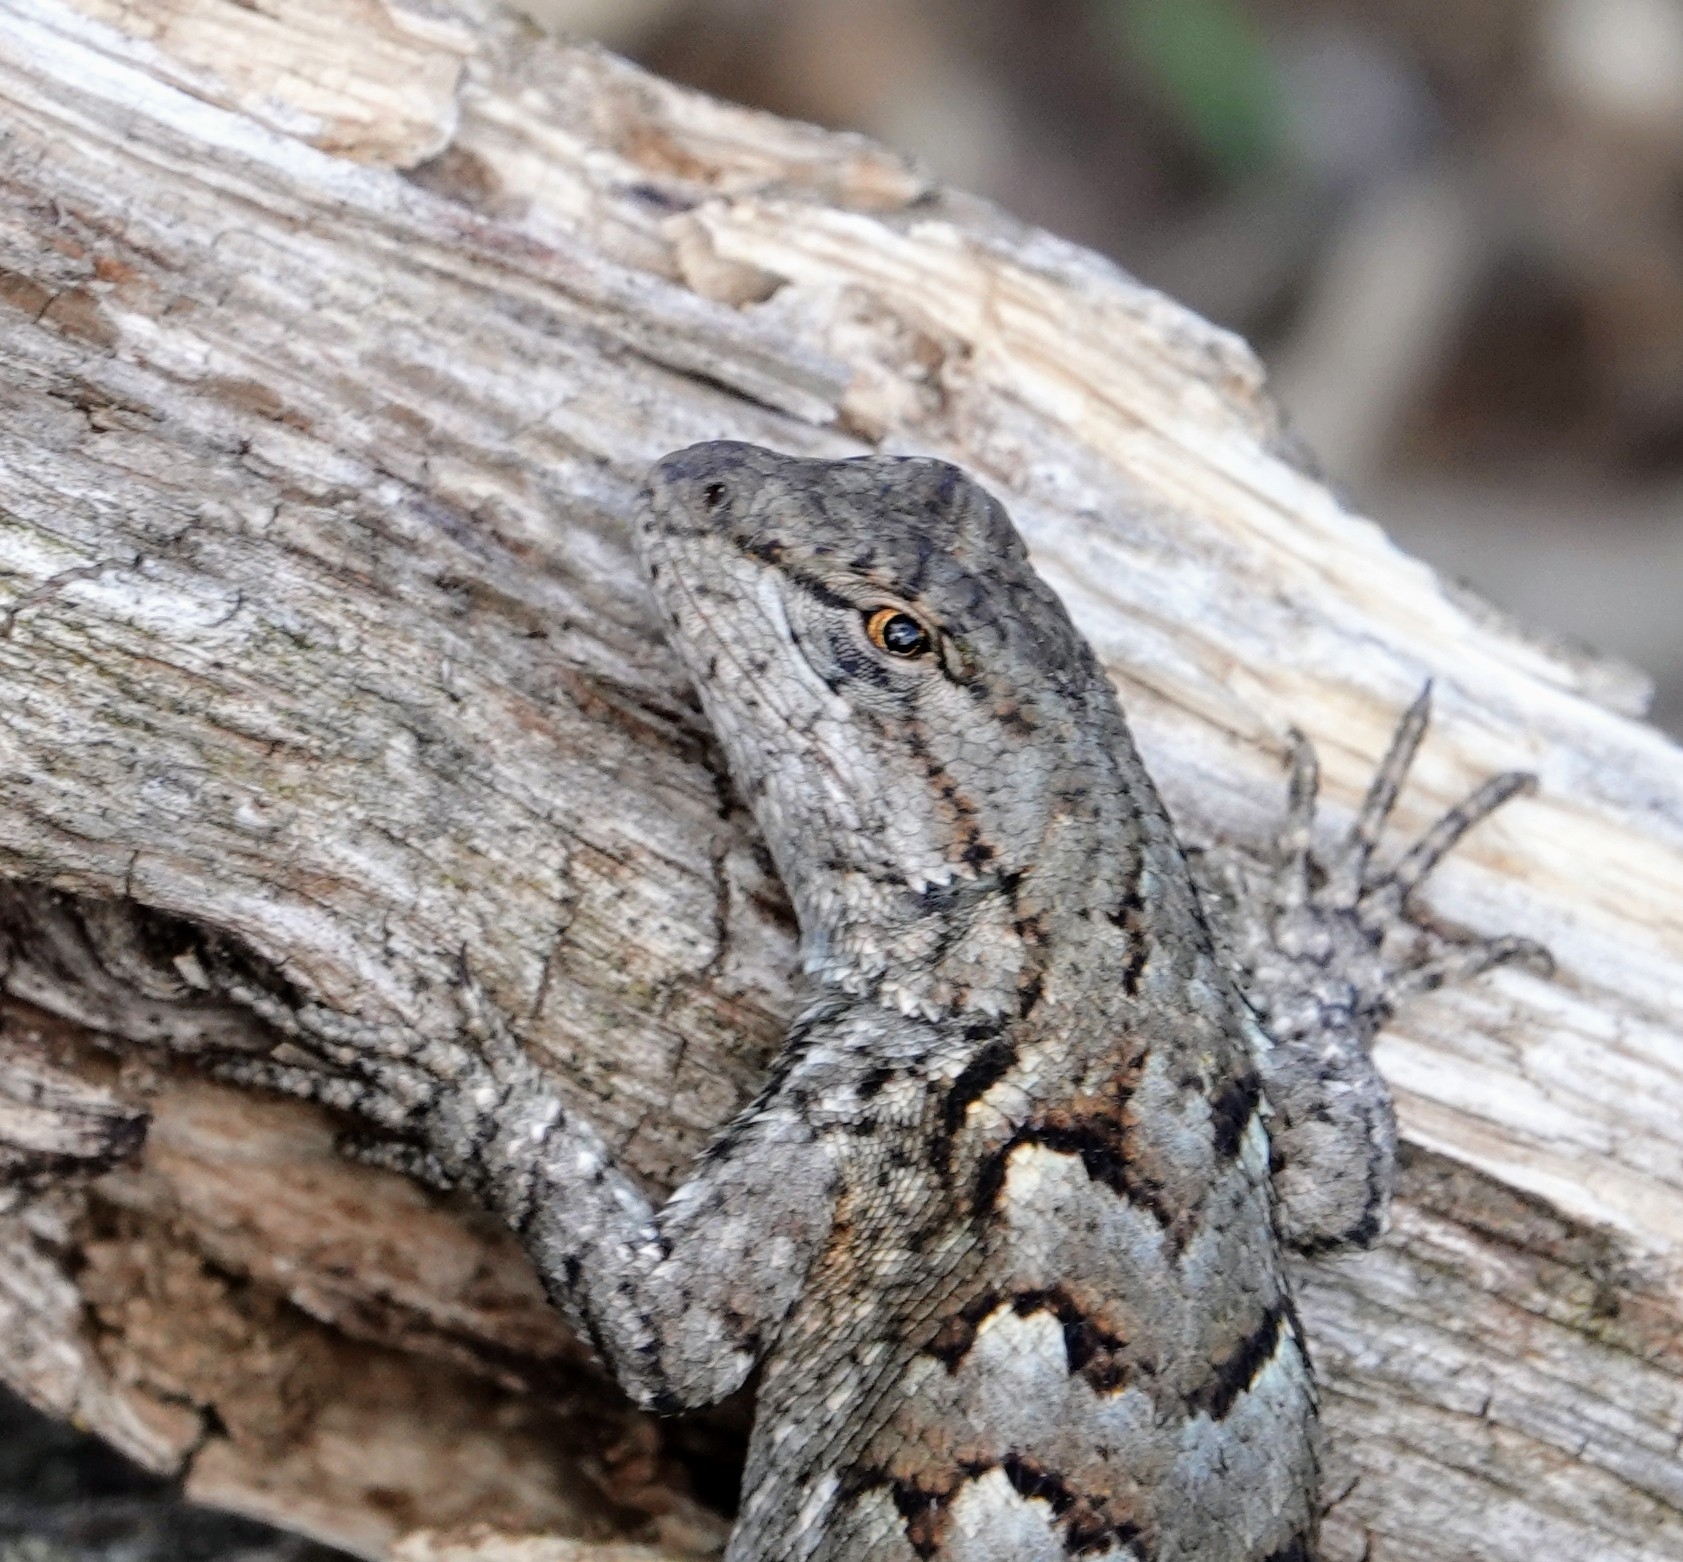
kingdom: Animalia
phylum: Chordata
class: Squamata
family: Phrynosomatidae
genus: Sceloporus
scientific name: Sceloporus consobrinus
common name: Southern prairie lizard
